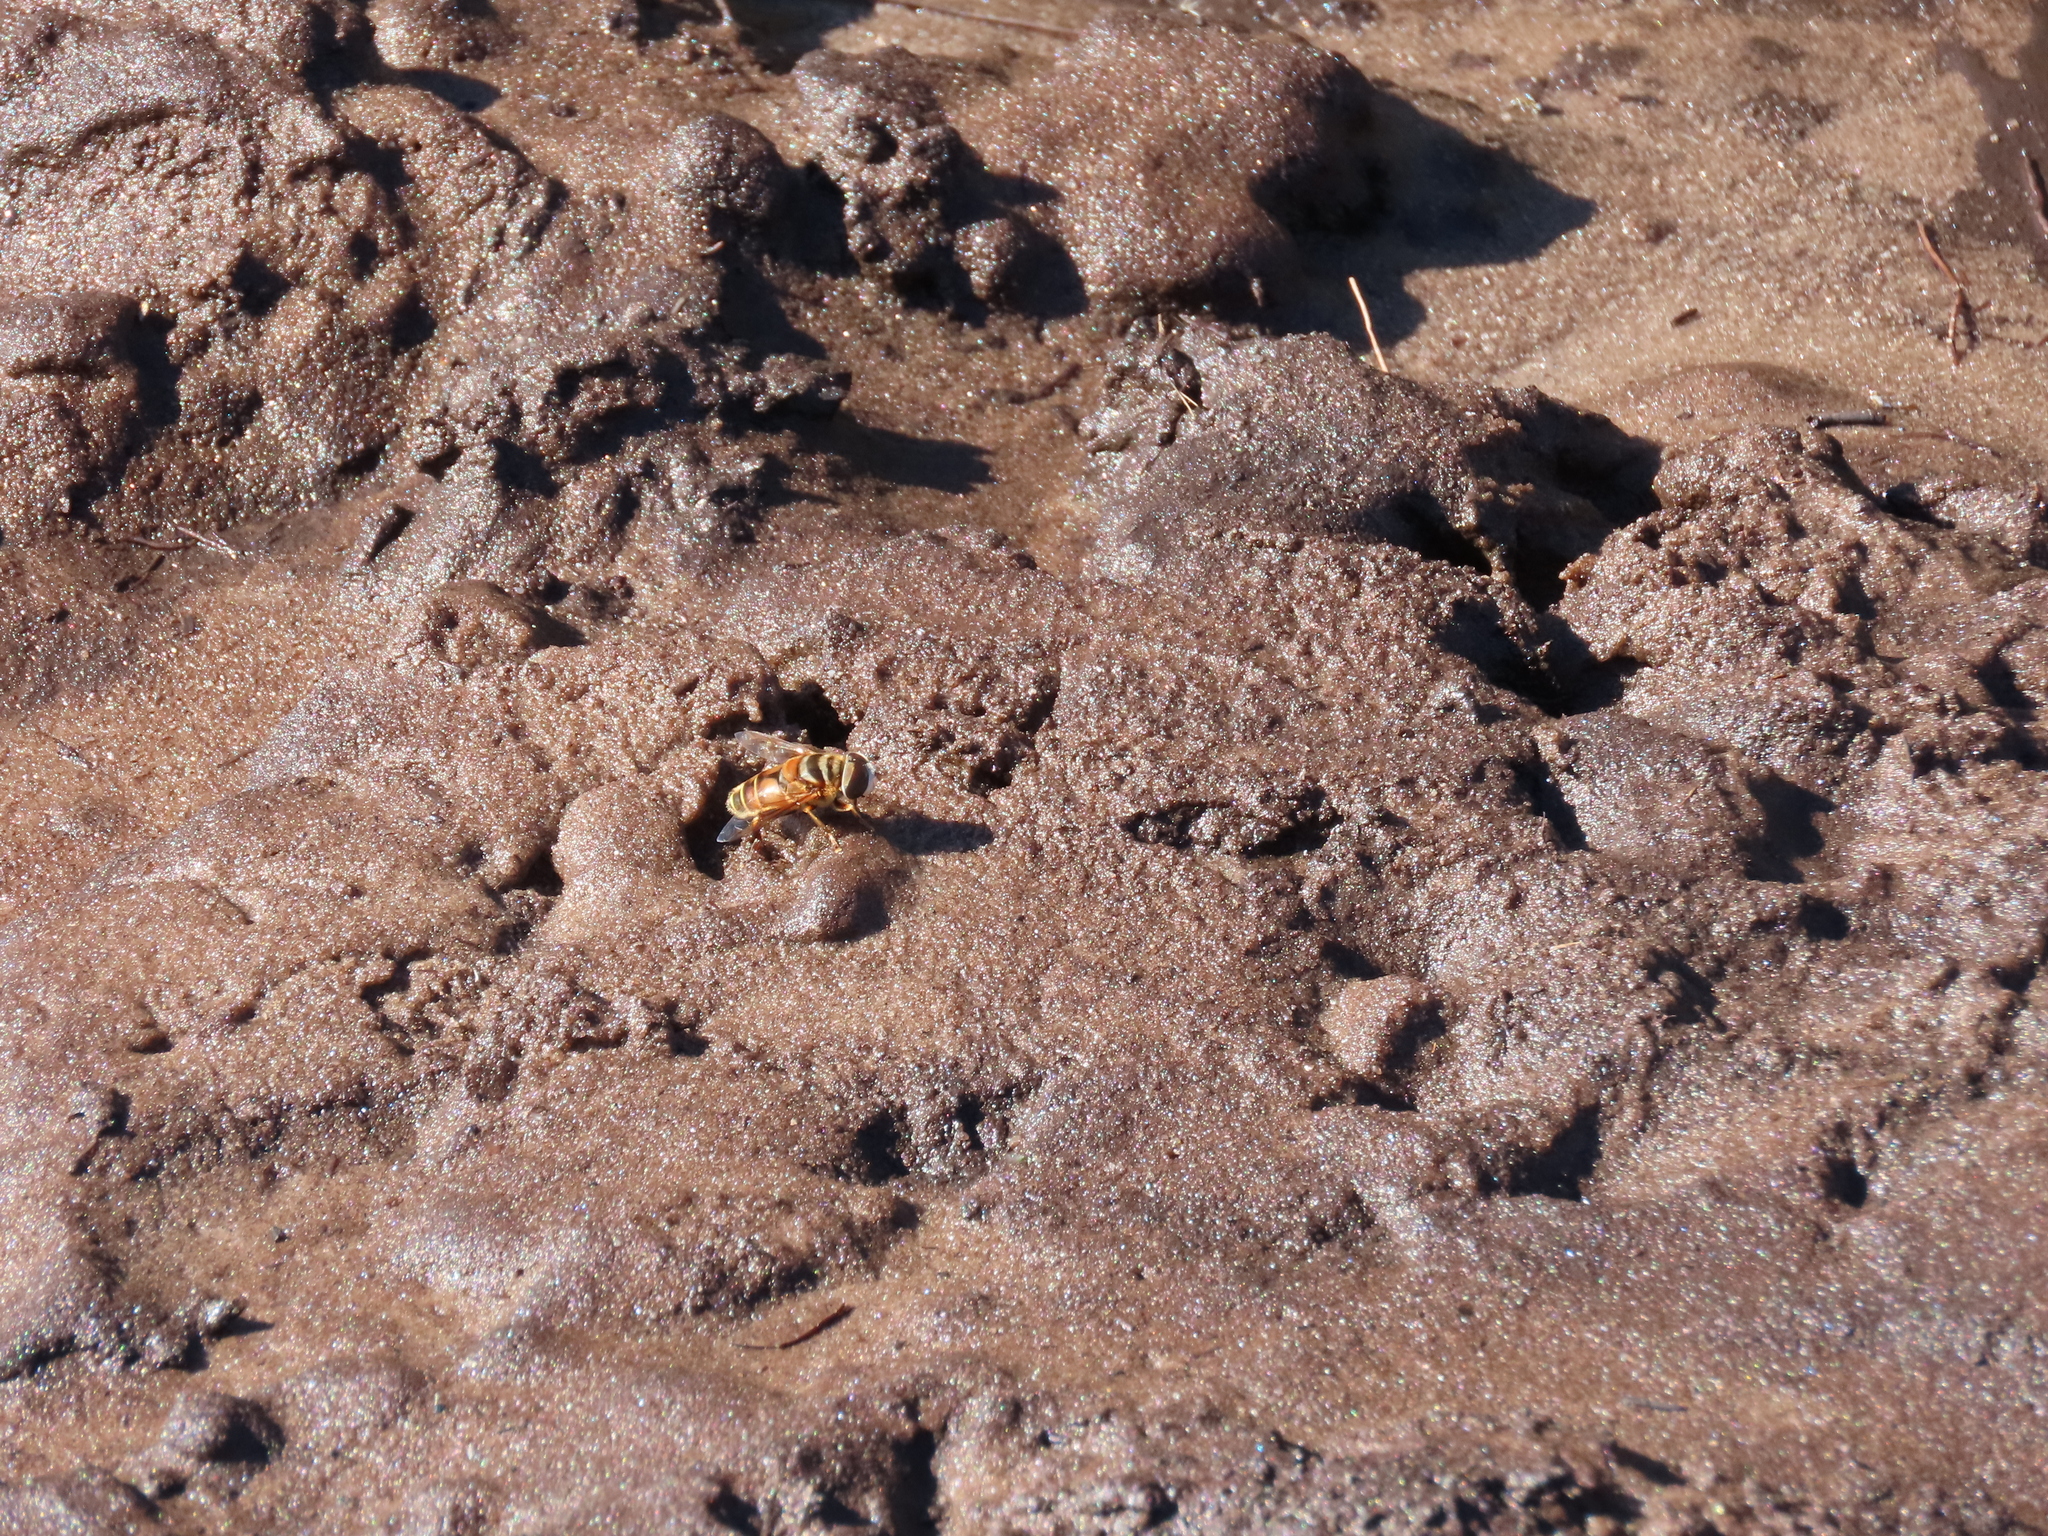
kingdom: Animalia
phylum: Arthropoda
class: Insecta
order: Diptera
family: Syrphidae
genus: Palpada
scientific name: Palpada vinetorum
